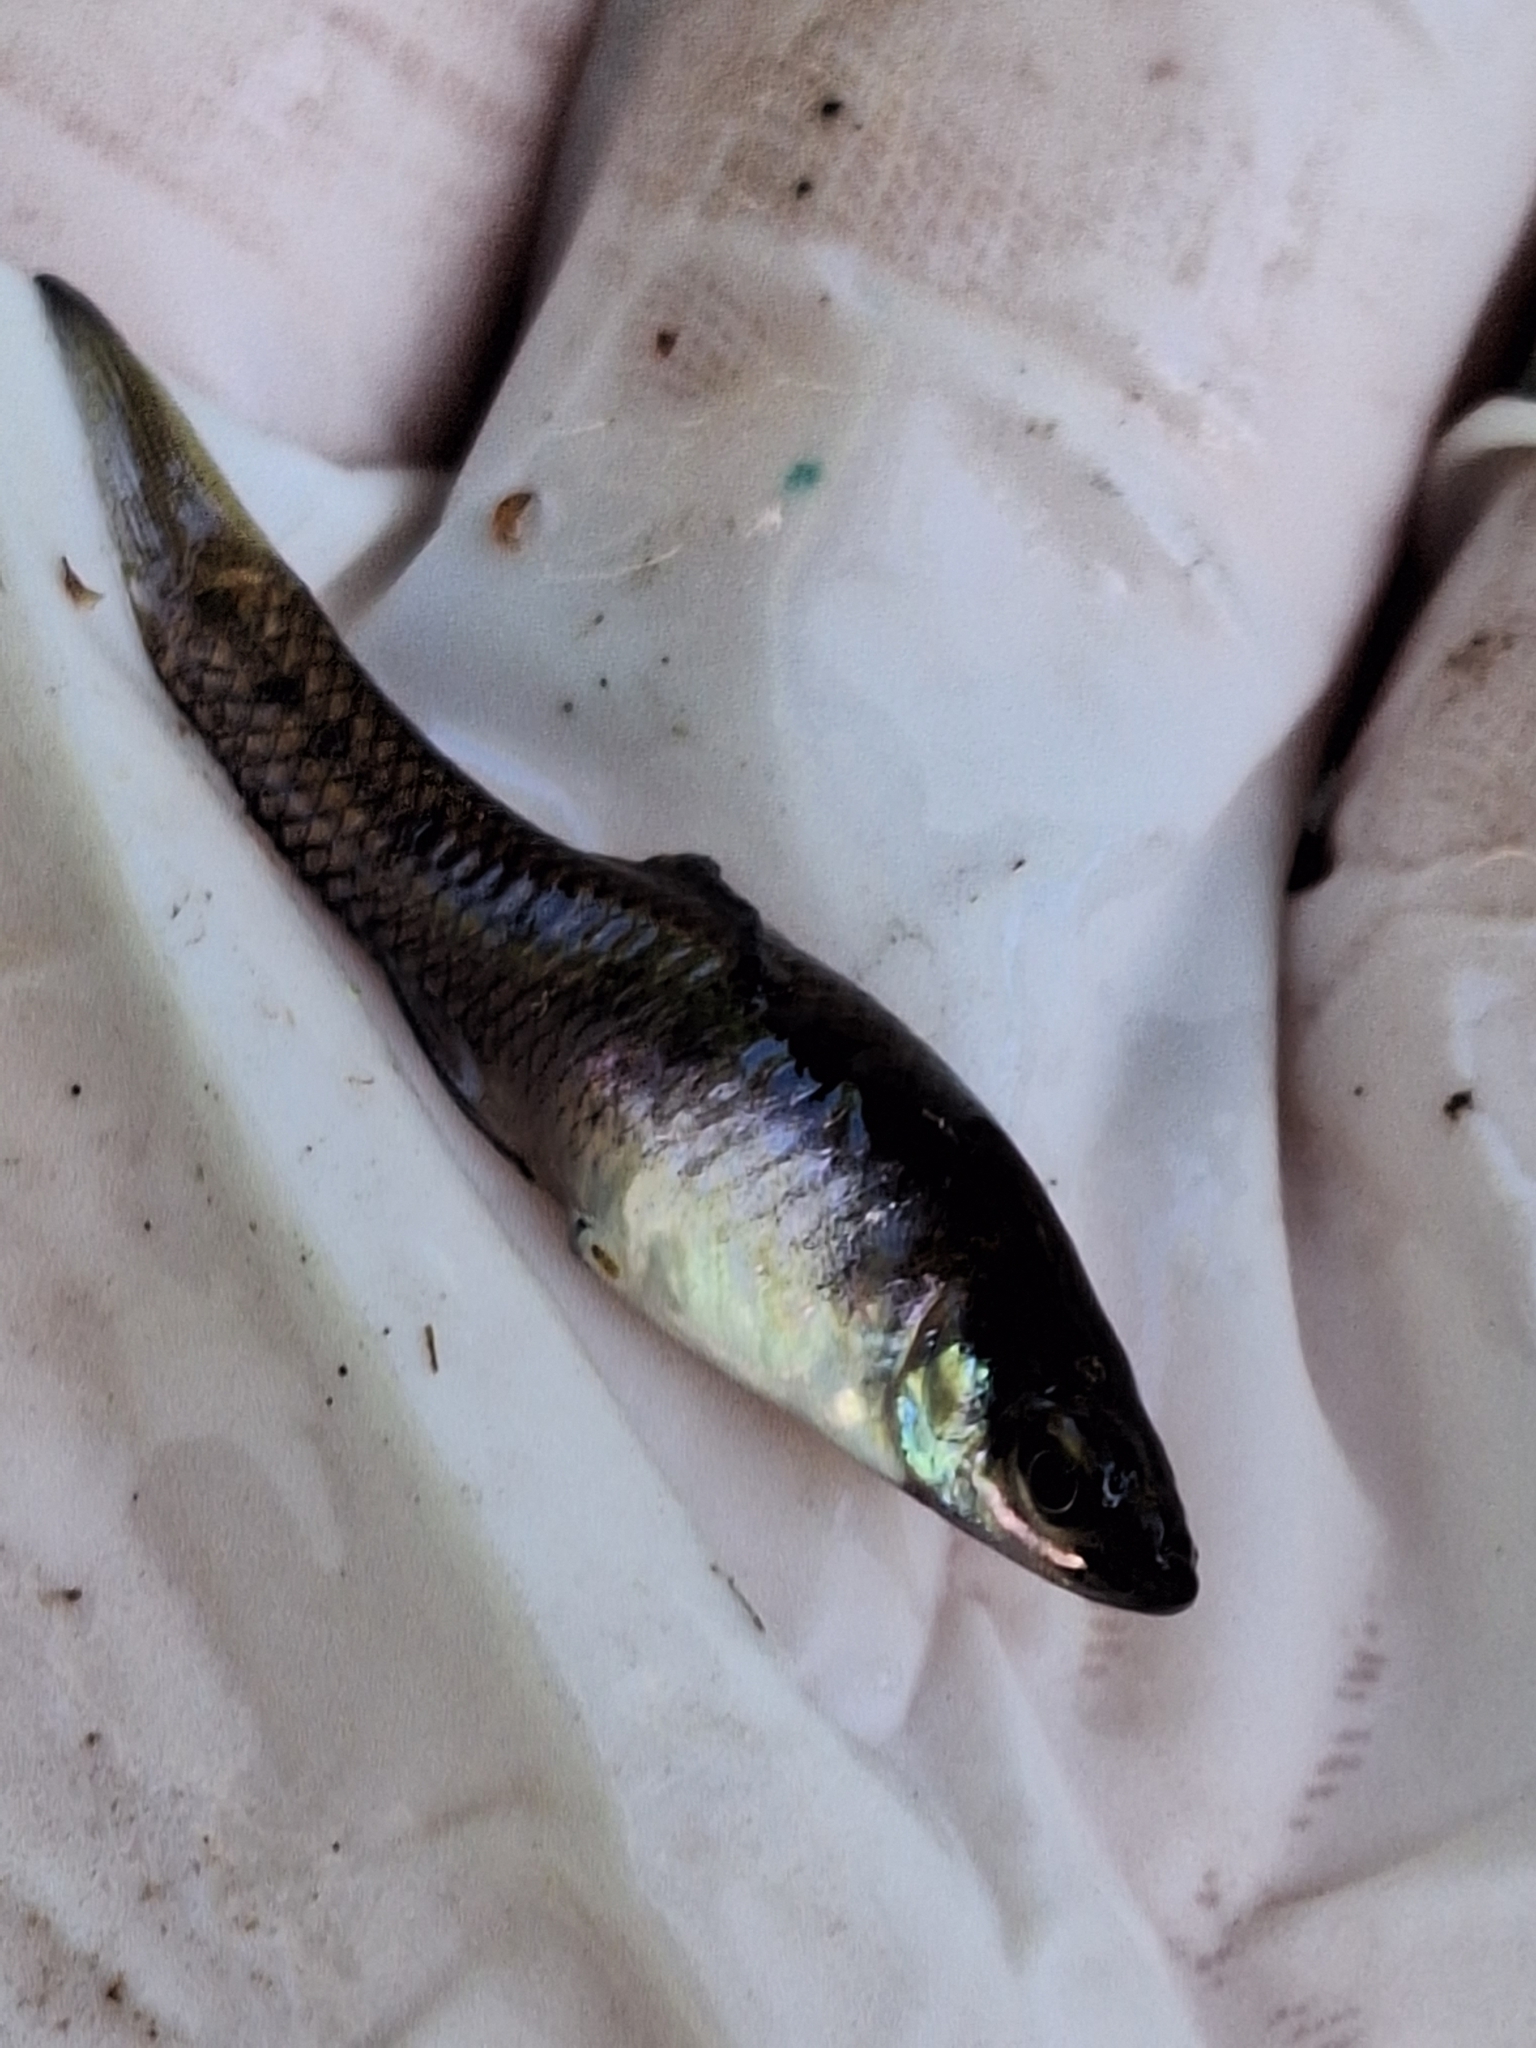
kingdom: Animalia
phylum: Chordata
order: Cyprinodontiformes
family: Poeciliidae
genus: Cnesterodon
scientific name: Cnesterodon decemmaculatus
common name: Ten spotted live-bearer
